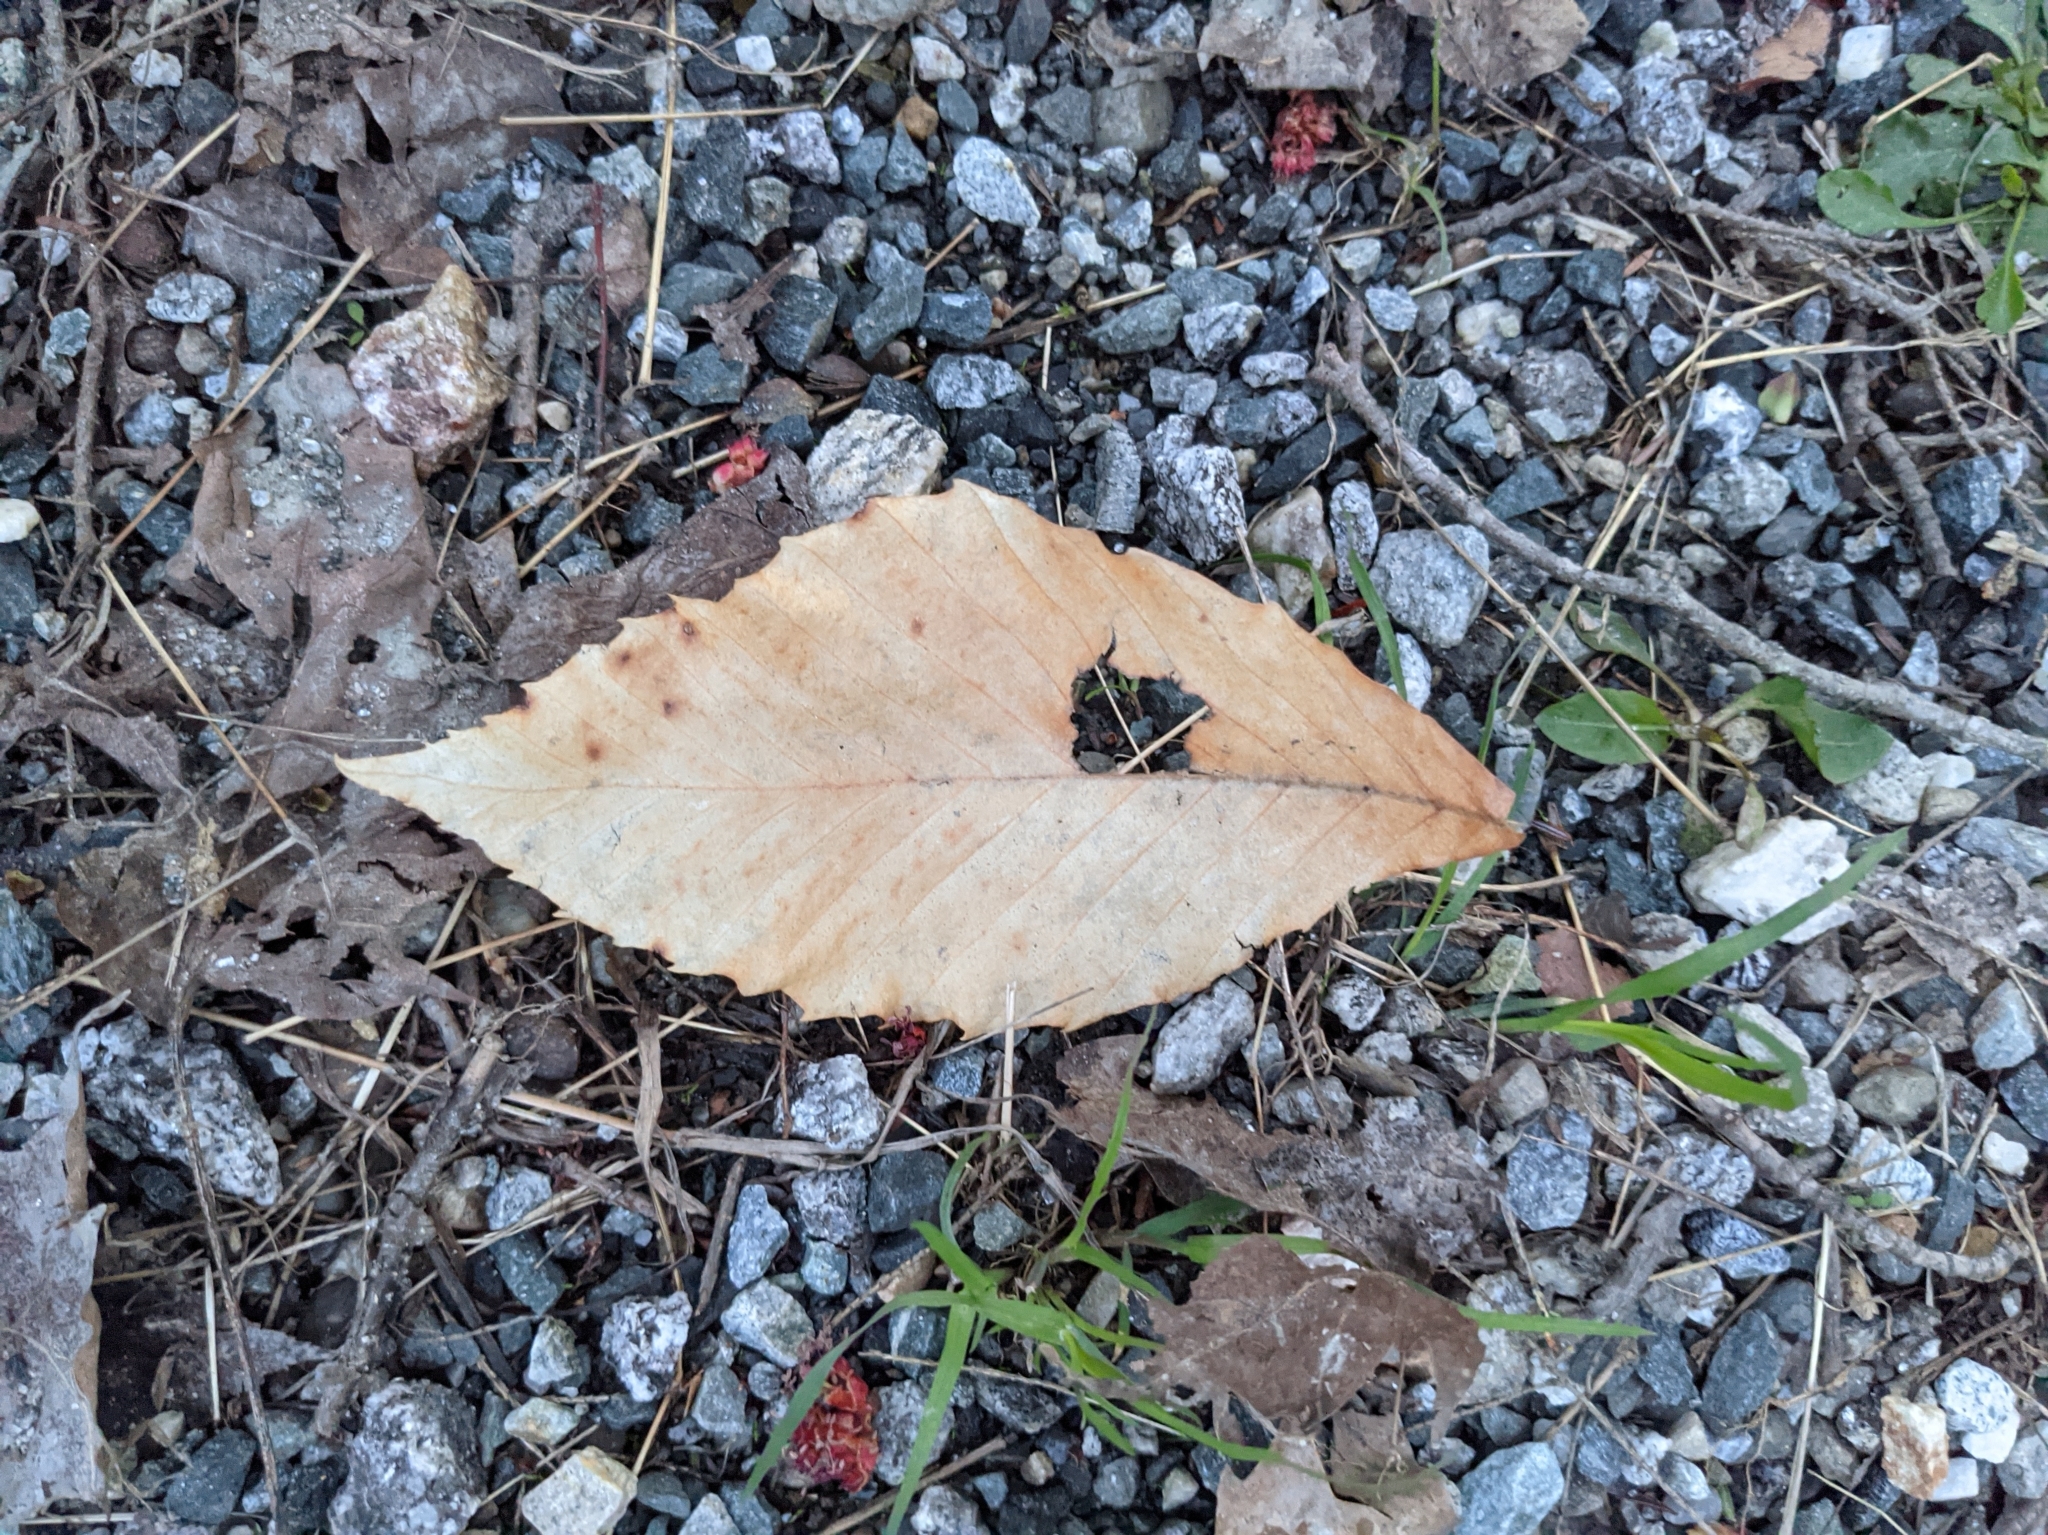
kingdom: Plantae
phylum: Tracheophyta
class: Magnoliopsida
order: Fagales
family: Fagaceae
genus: Fagus
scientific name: Fagus grandifolia
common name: American beech
